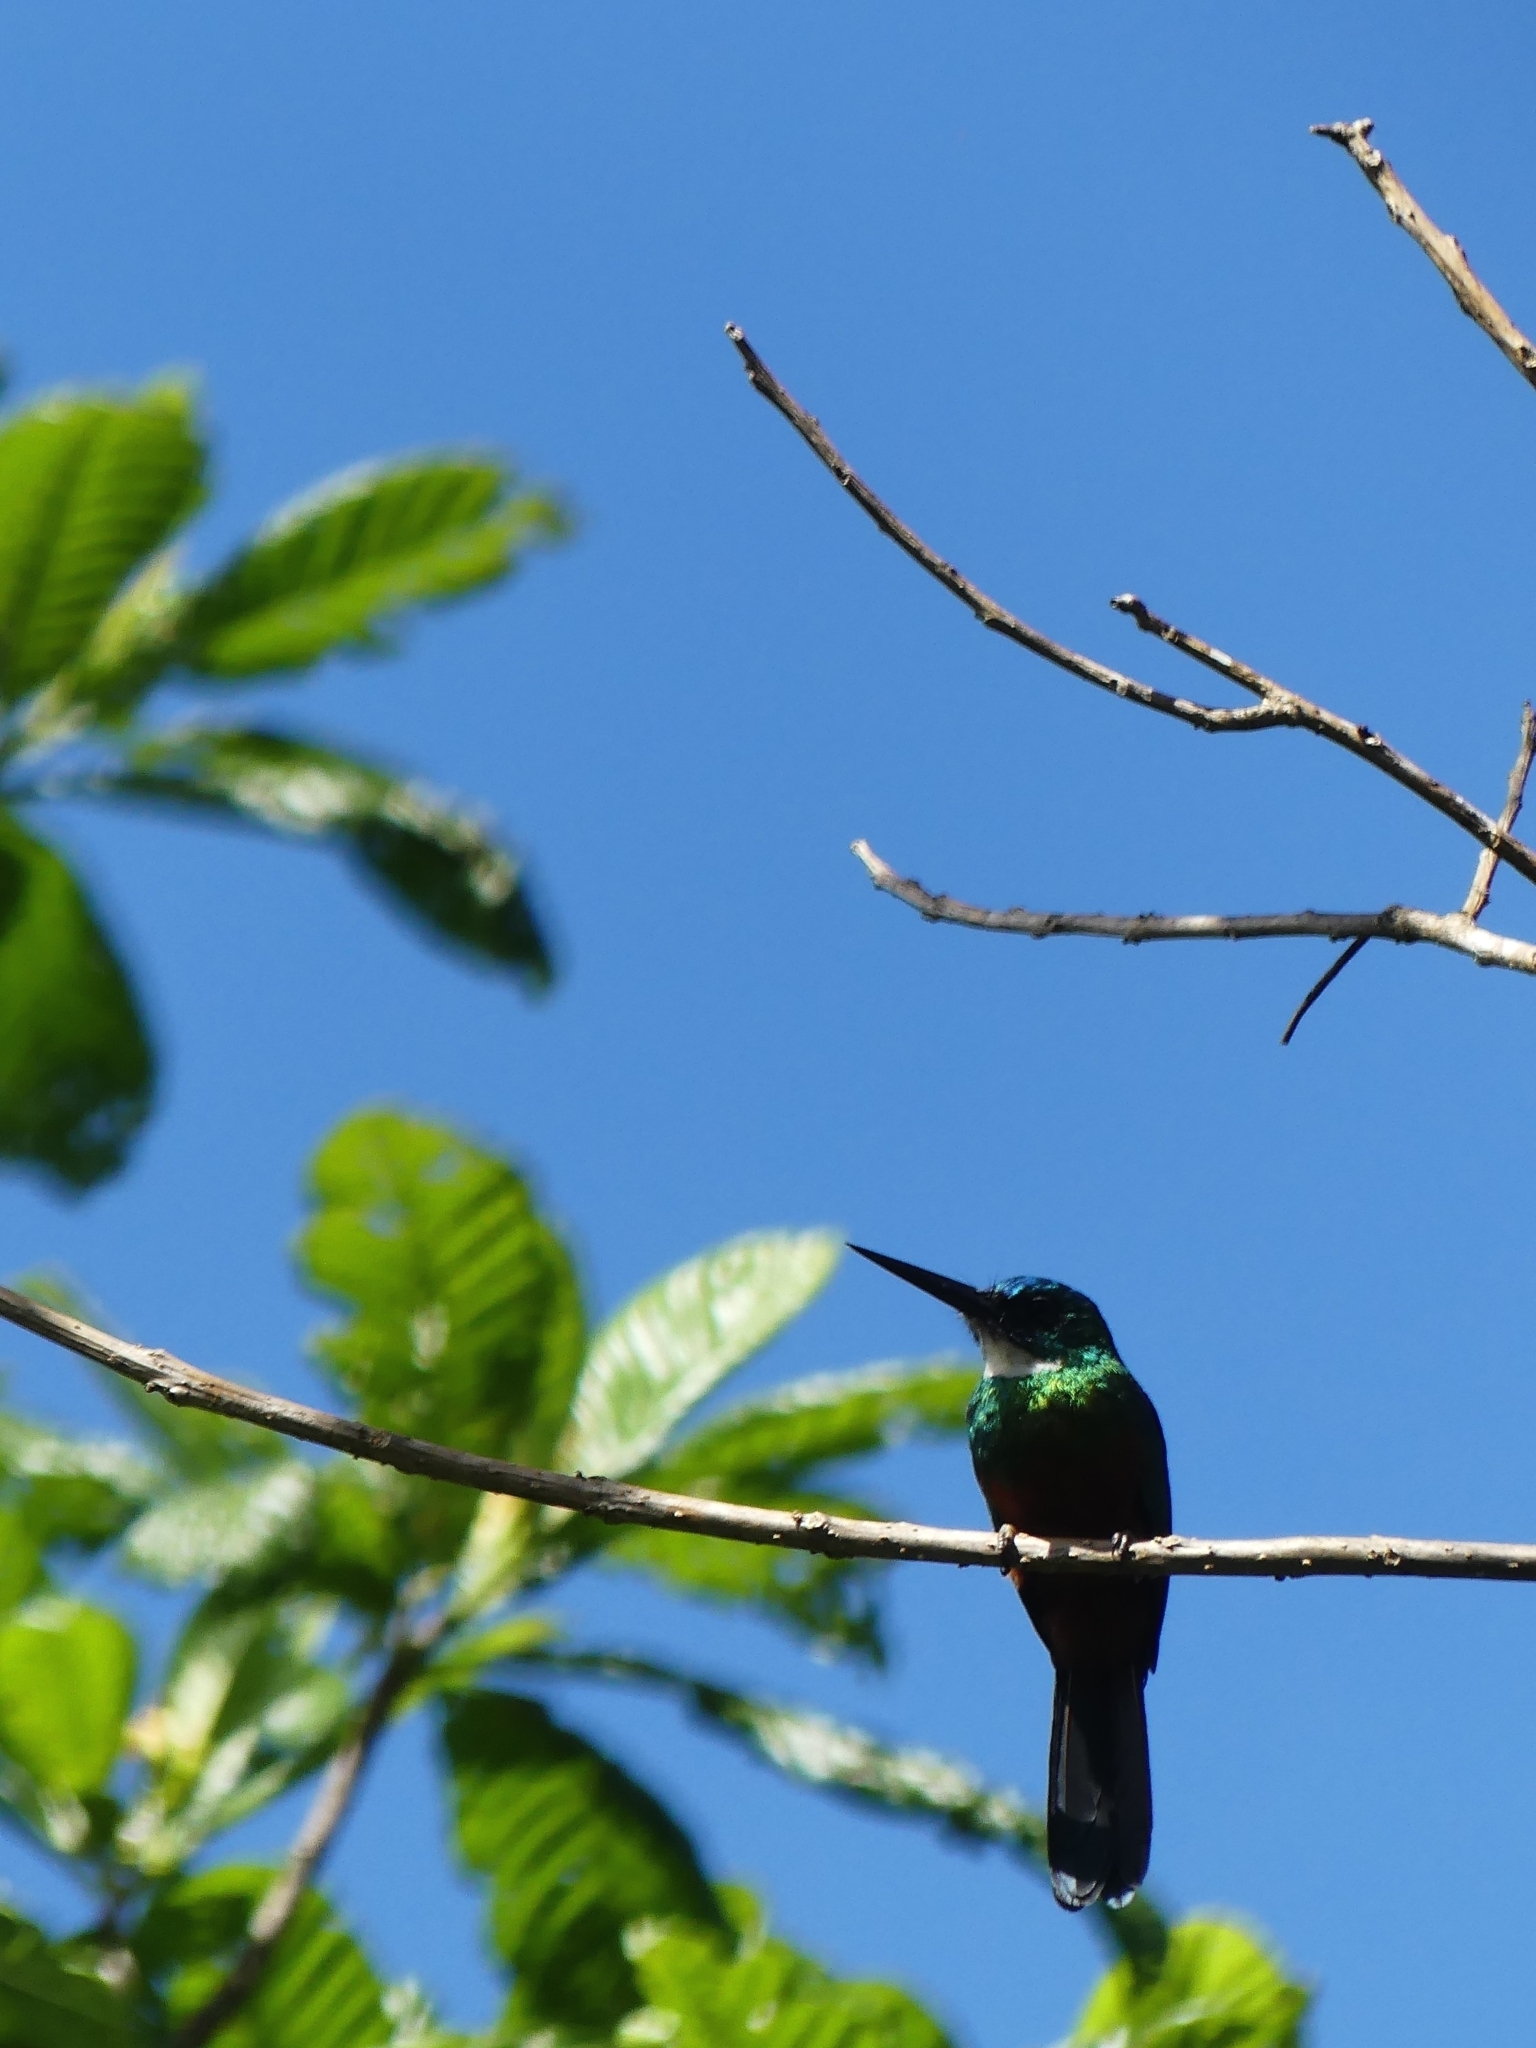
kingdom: Animalia
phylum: Chordata
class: Aves
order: Piciformes
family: Galbulidae
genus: Galbula
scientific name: Galbula galbula
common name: Green-tailed jacamar
